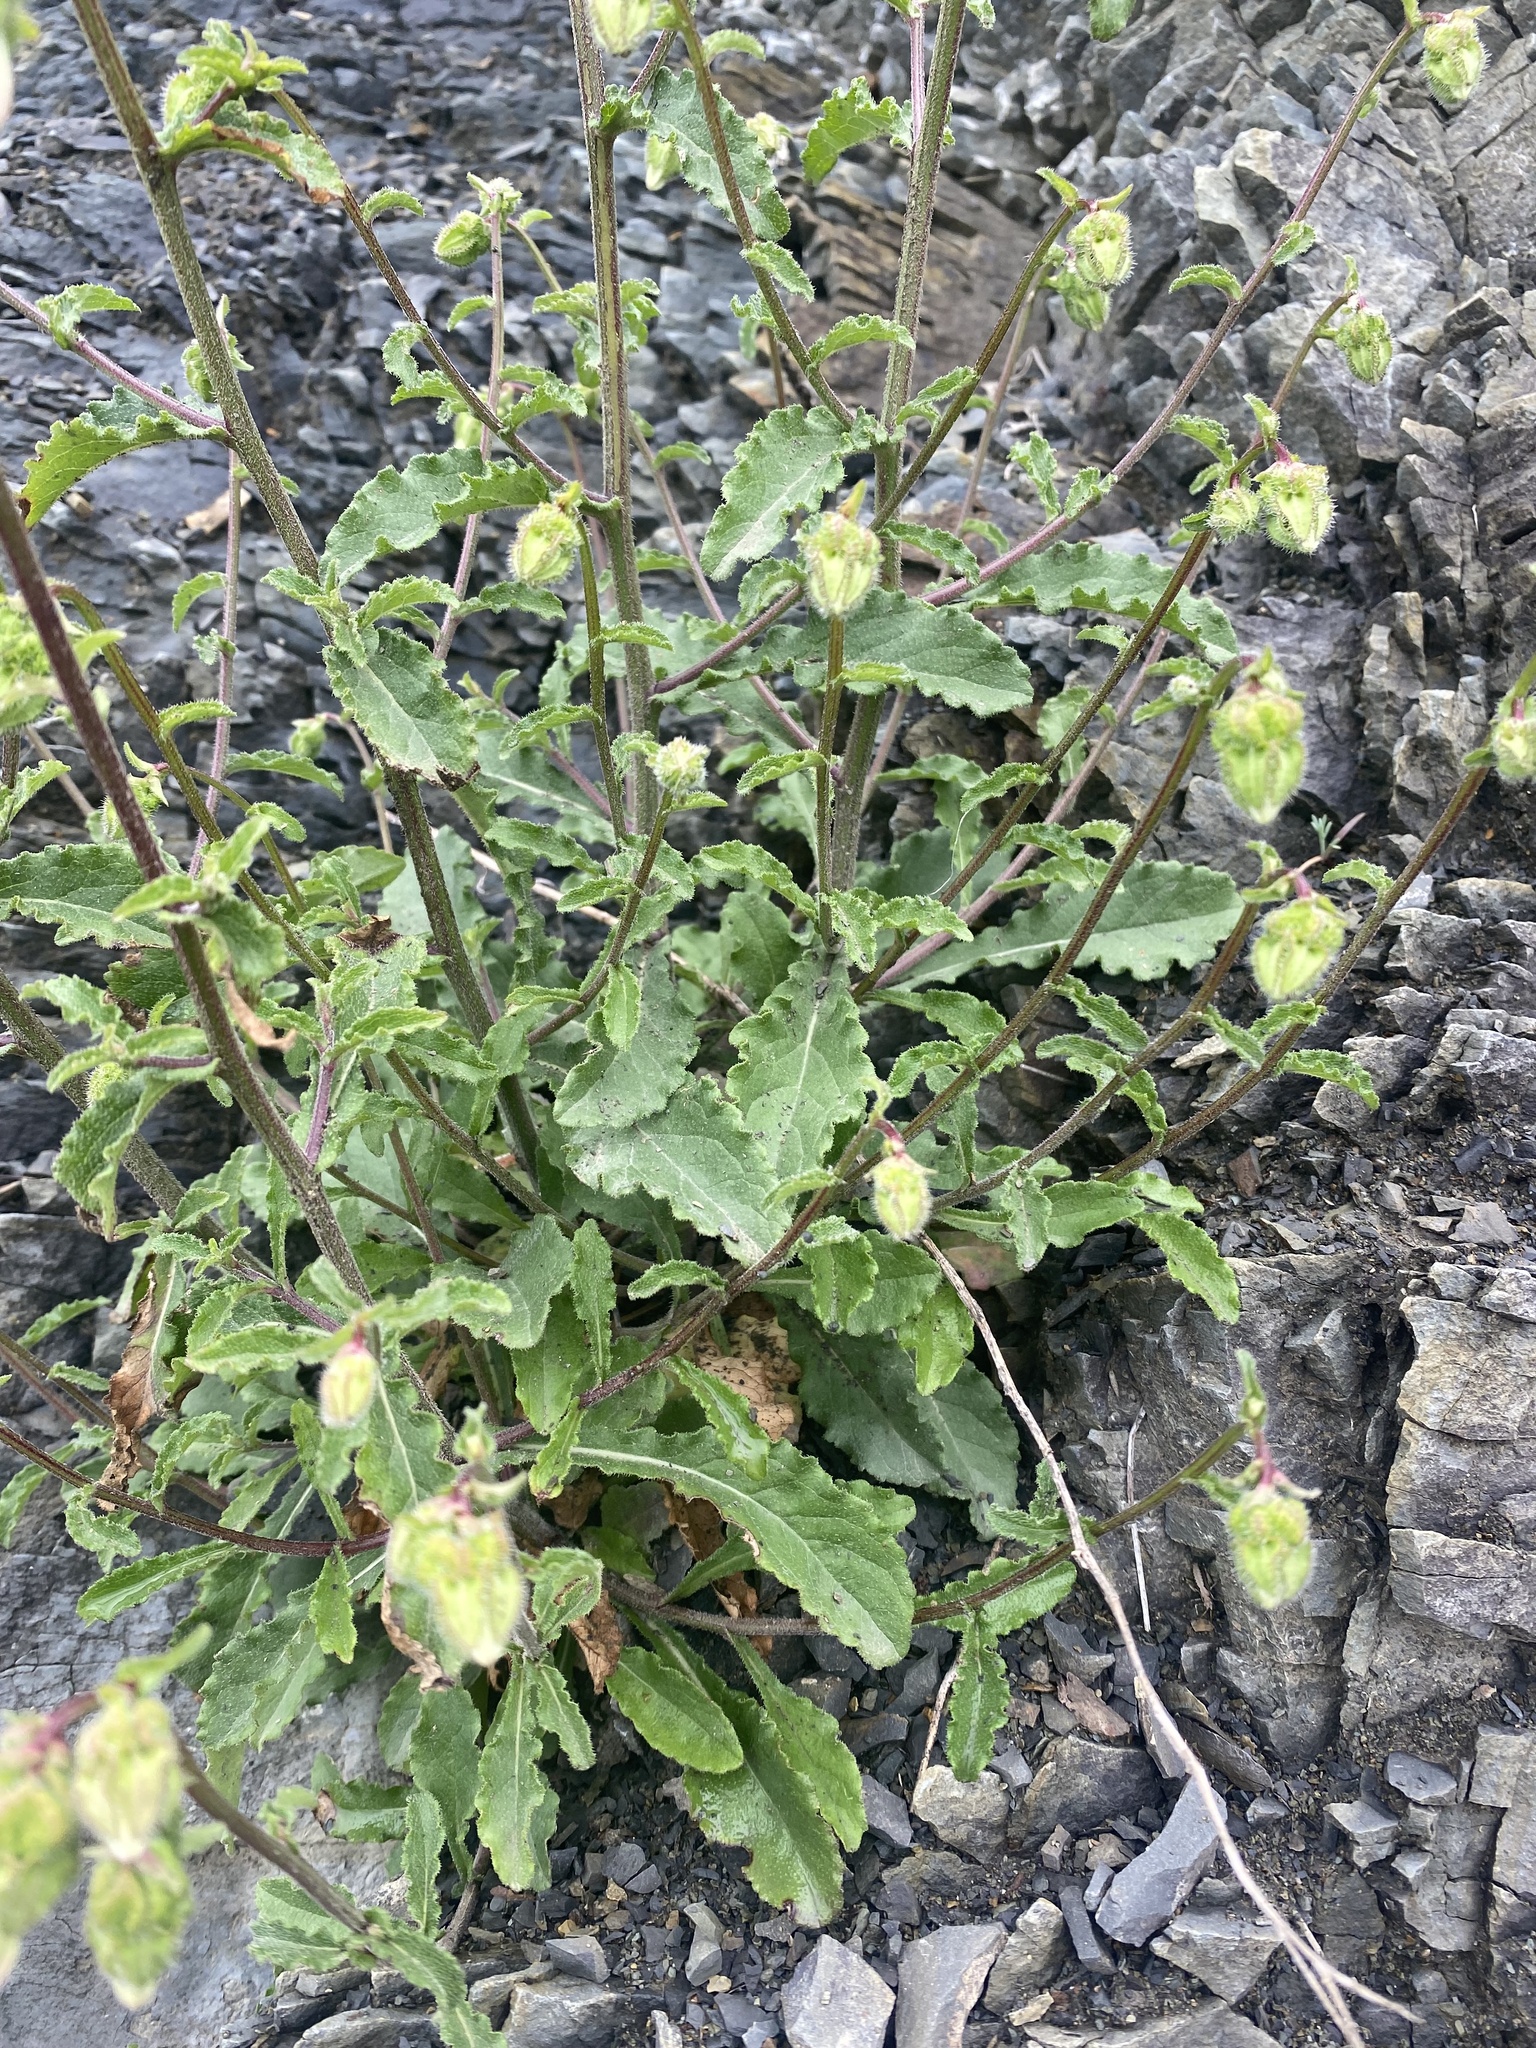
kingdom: Plantae
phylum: Tracheophyta
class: Magnoliopsida
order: Asterales
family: Campanulaceae
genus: Campanula
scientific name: Campanula komarovii
